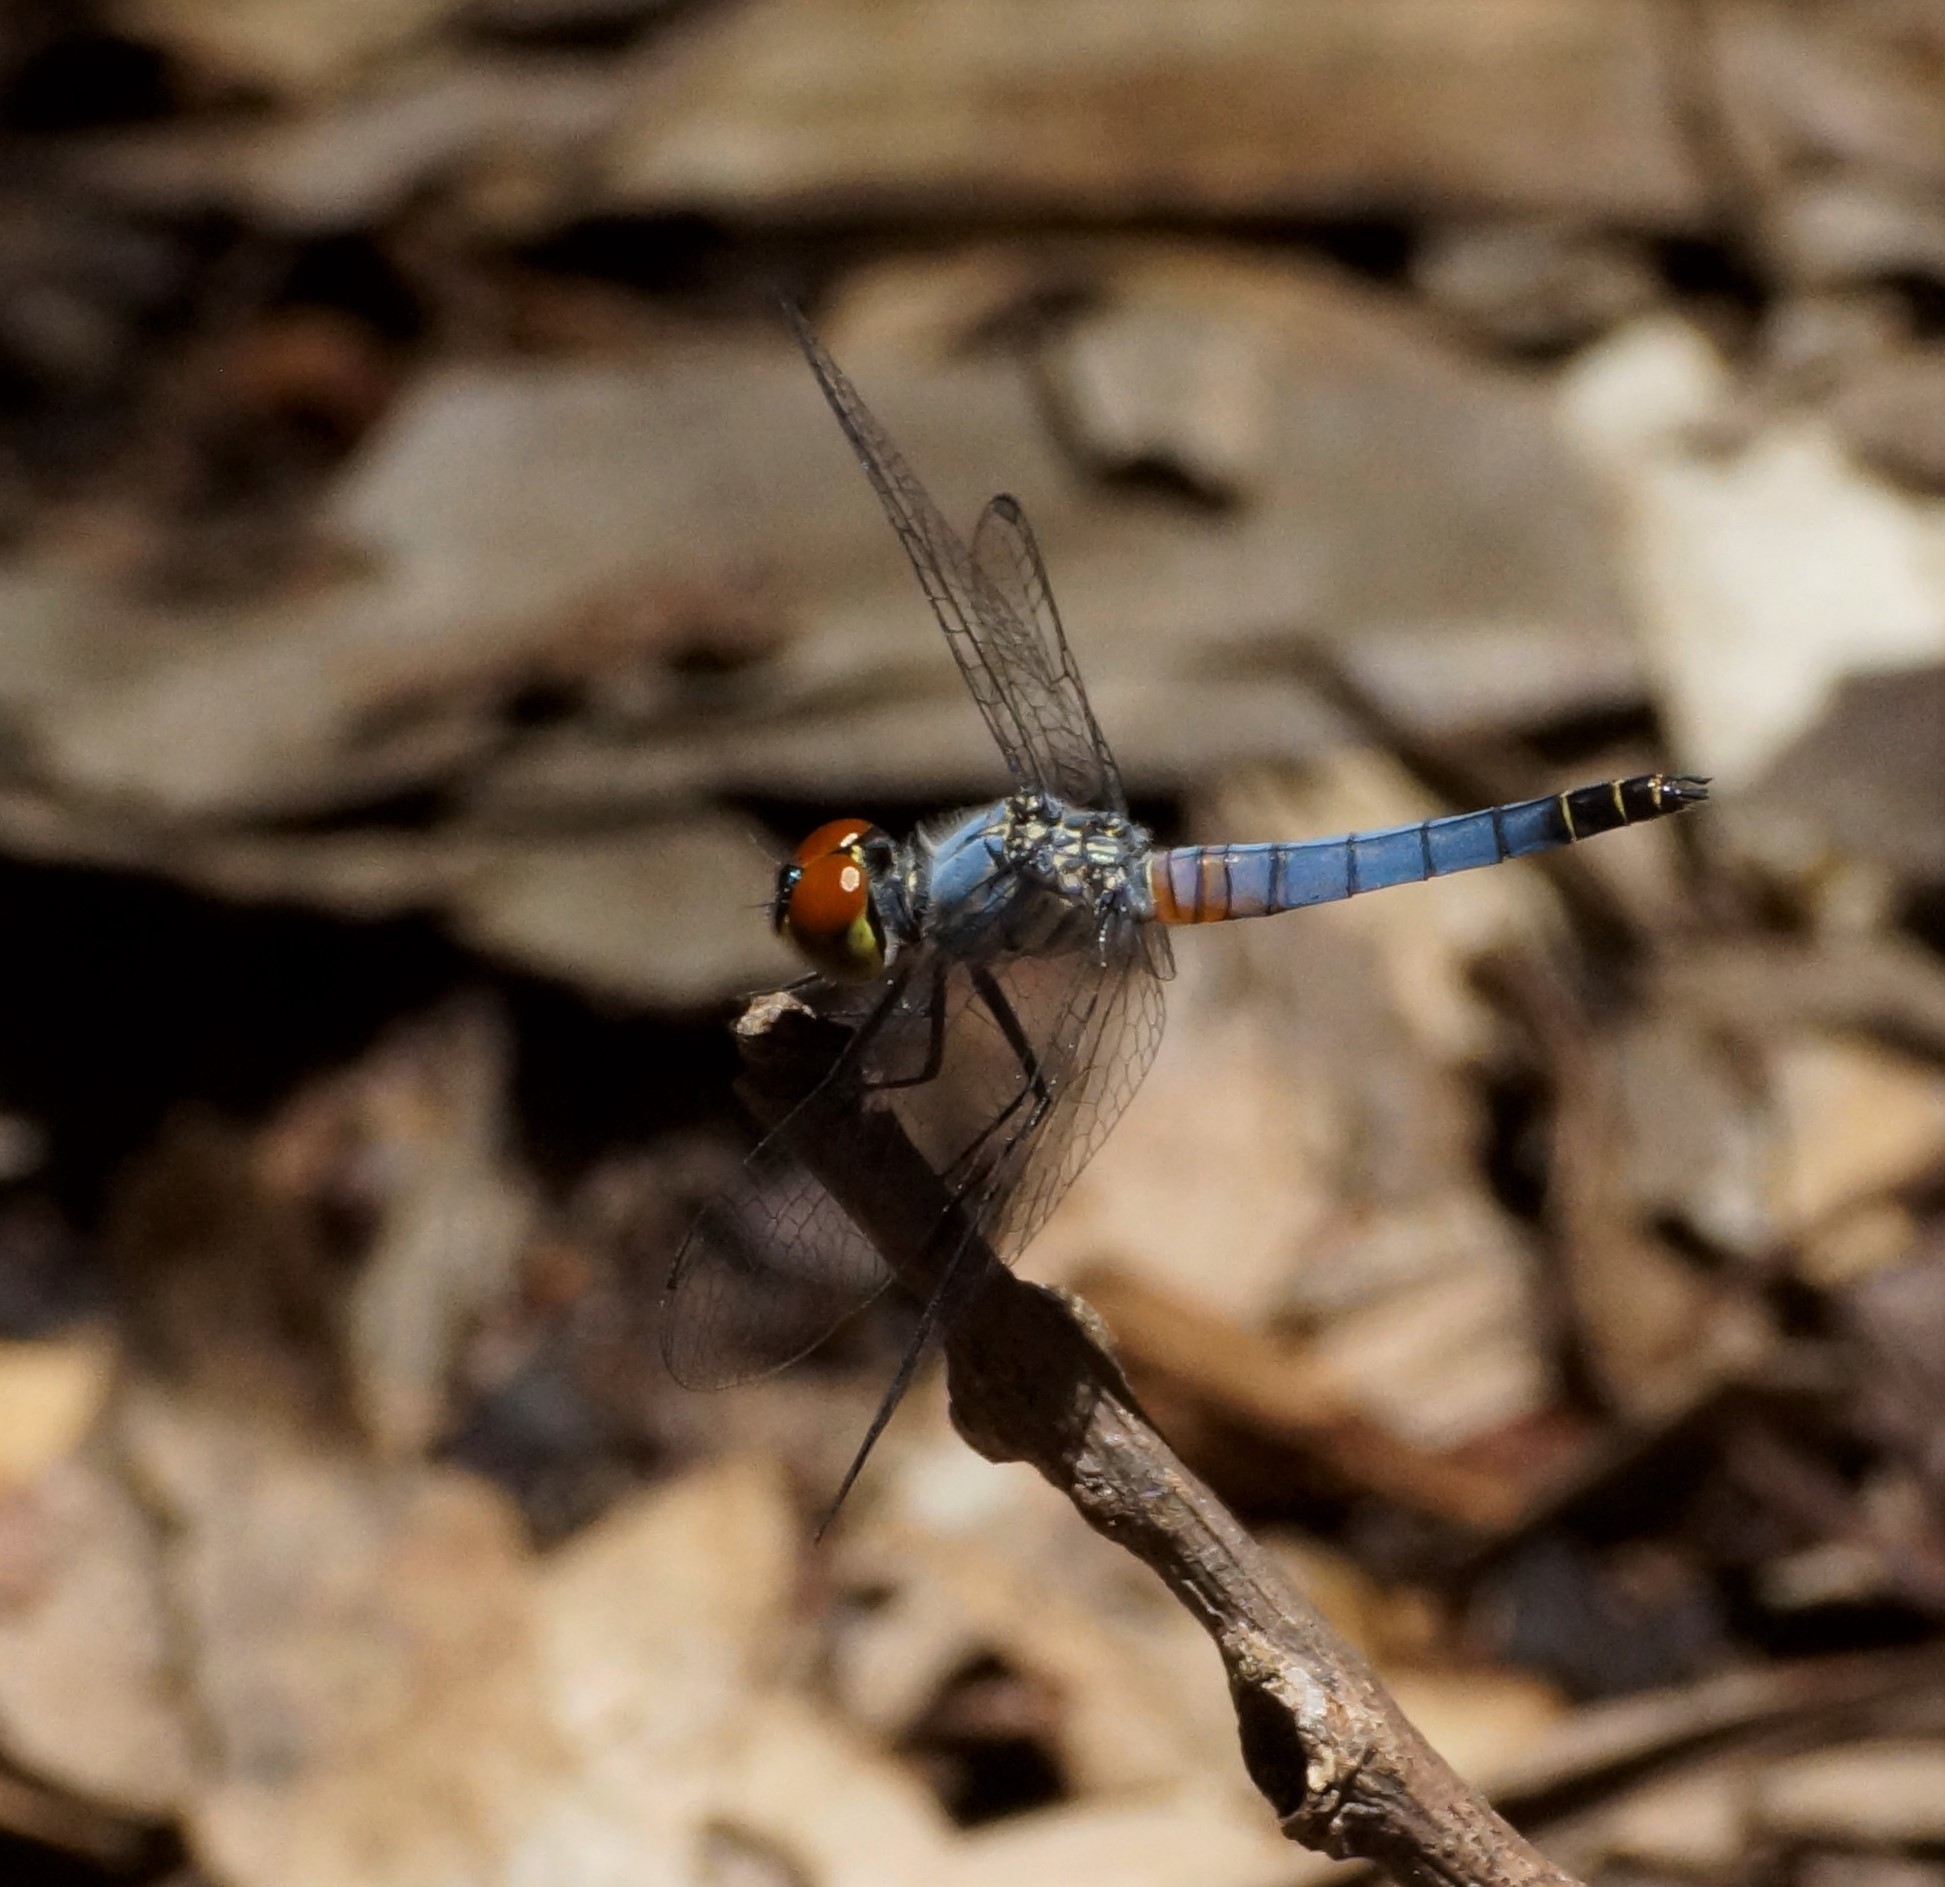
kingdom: Animalia
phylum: Arthropoda
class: Insecta
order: Odonata
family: Libellulidae
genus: Brachydiplax
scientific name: Brachydiplax denticauda
